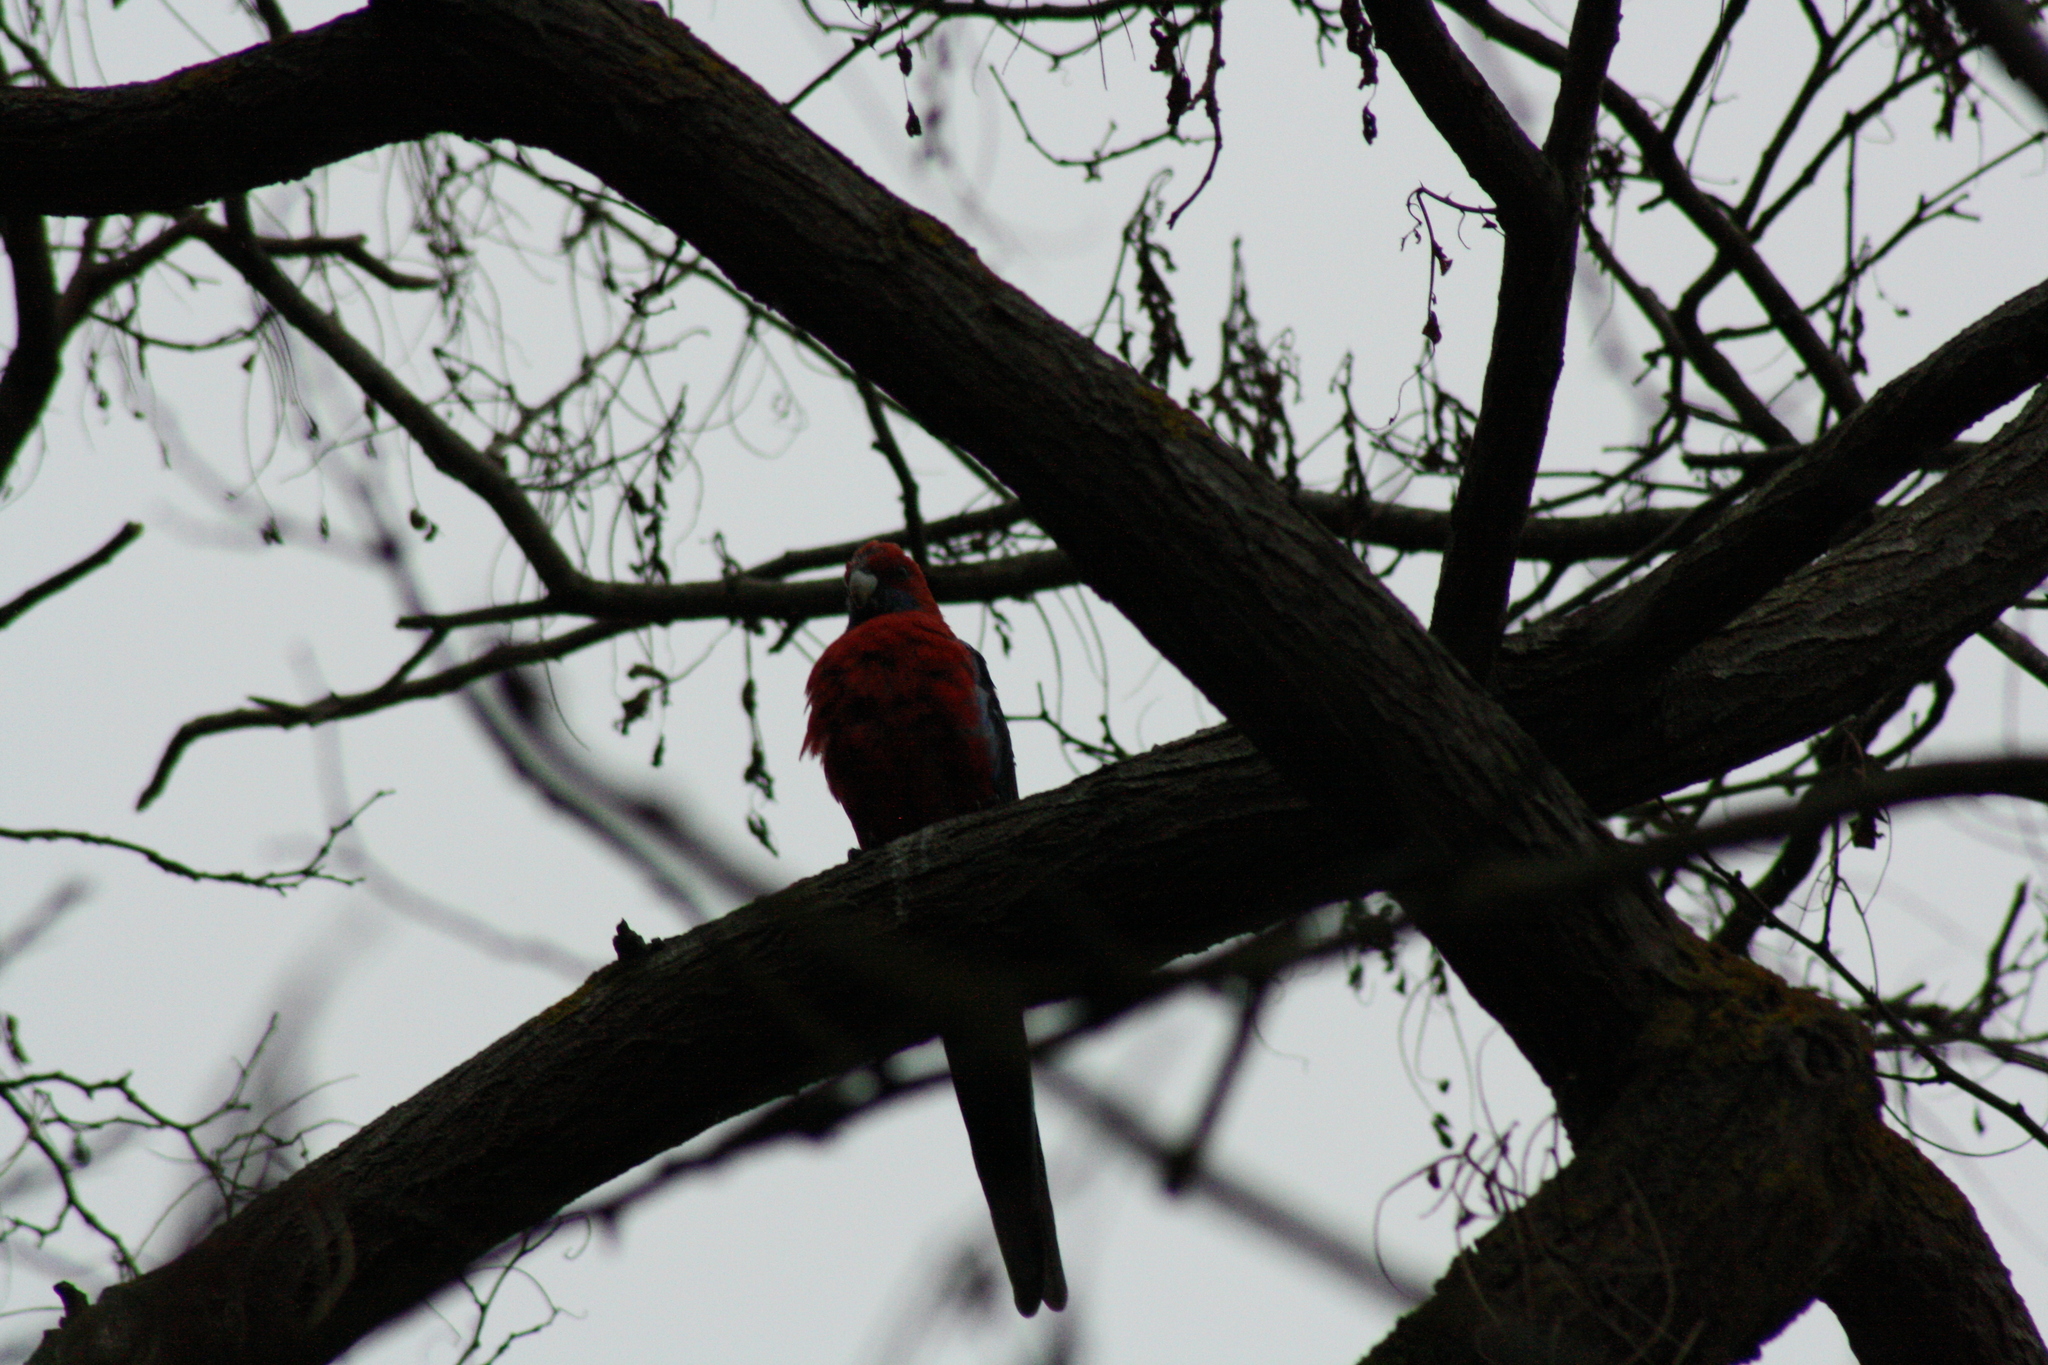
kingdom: Animalia
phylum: Chordata
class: Aves
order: Psittaciformes
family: Psittacidae
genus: Platycercus
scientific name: Platycercus elegans
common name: Crimson rosella
